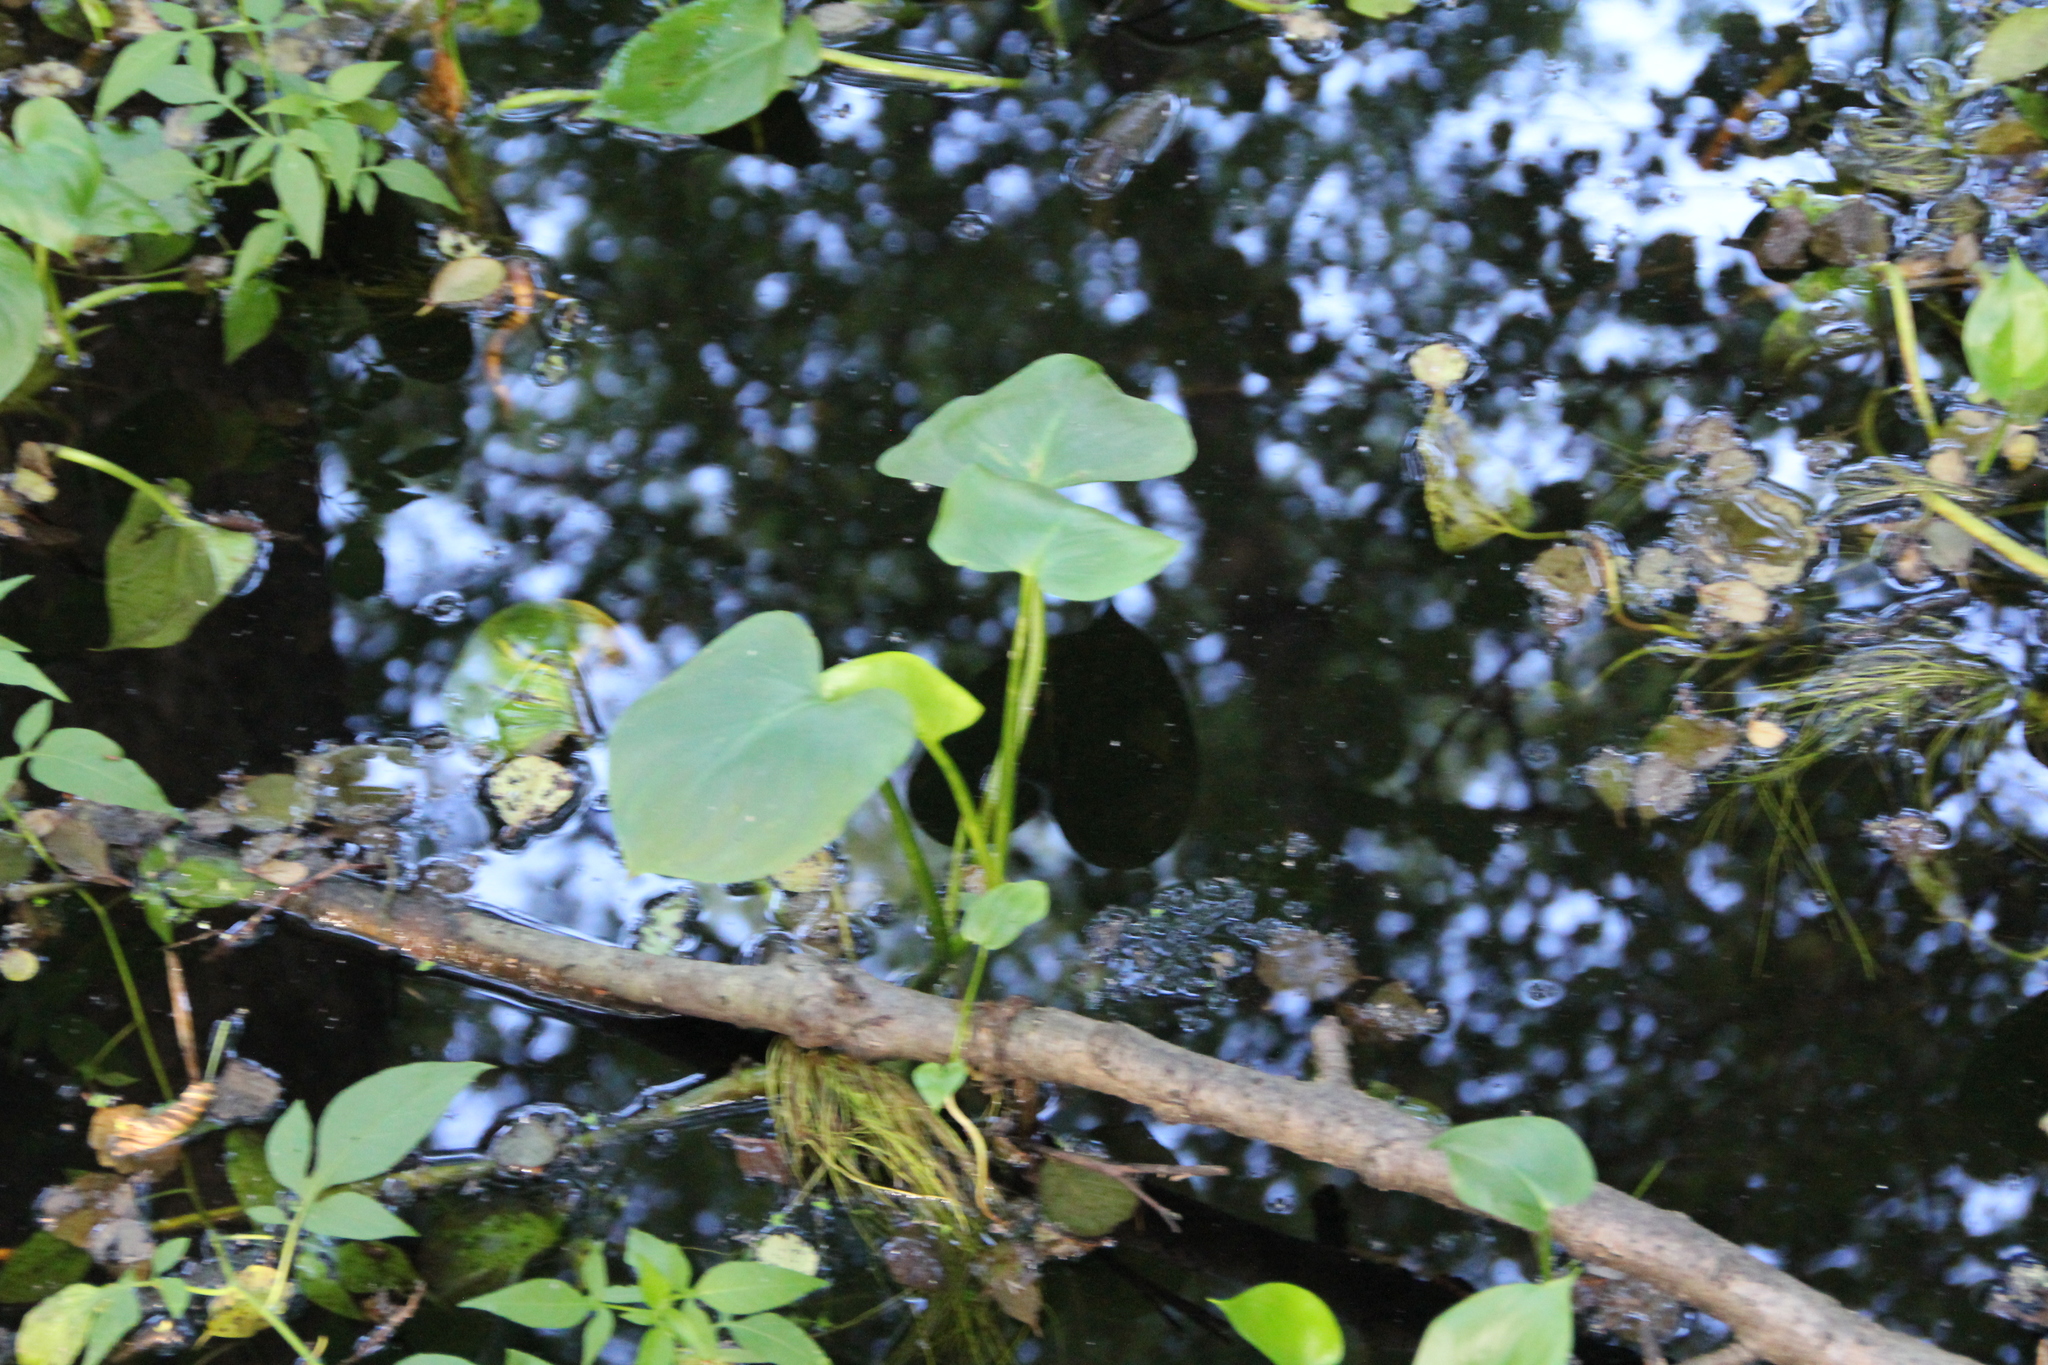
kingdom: Plantae
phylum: Tracheophyta
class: Liliopsida
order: Alismatales
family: Araceae
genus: Calla
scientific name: Calla palustris
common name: Bog arum
